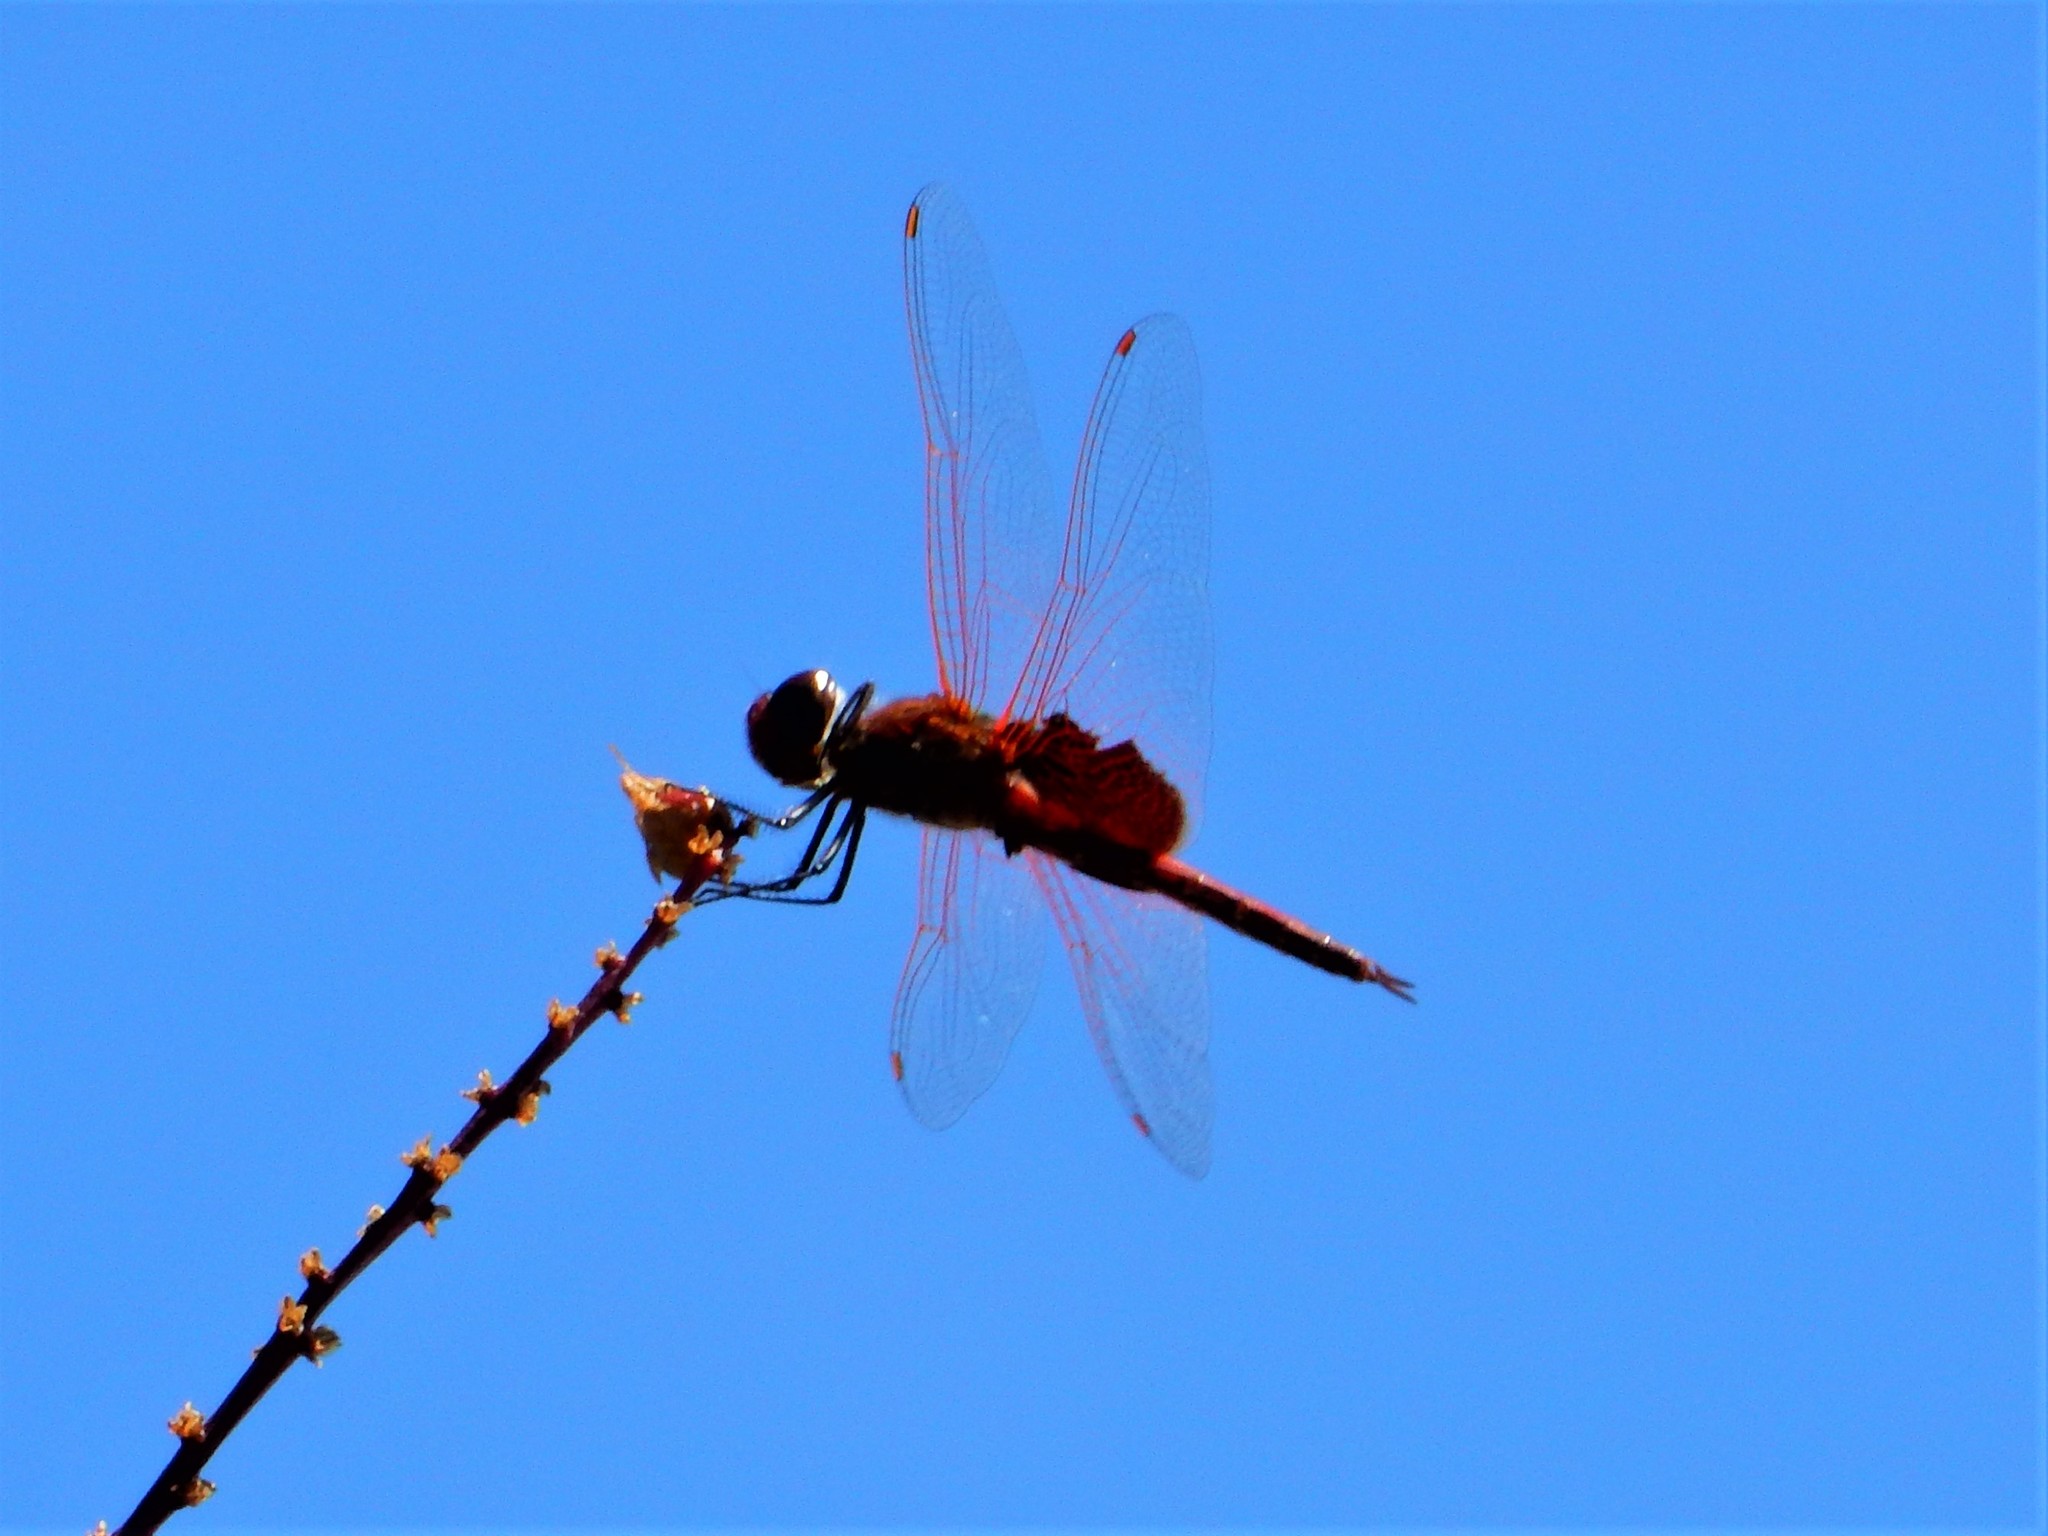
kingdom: Animalia
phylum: Arthropoda
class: Insecta
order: Odonata
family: Libellulidae
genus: Tramea
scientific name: Tramea loewii
